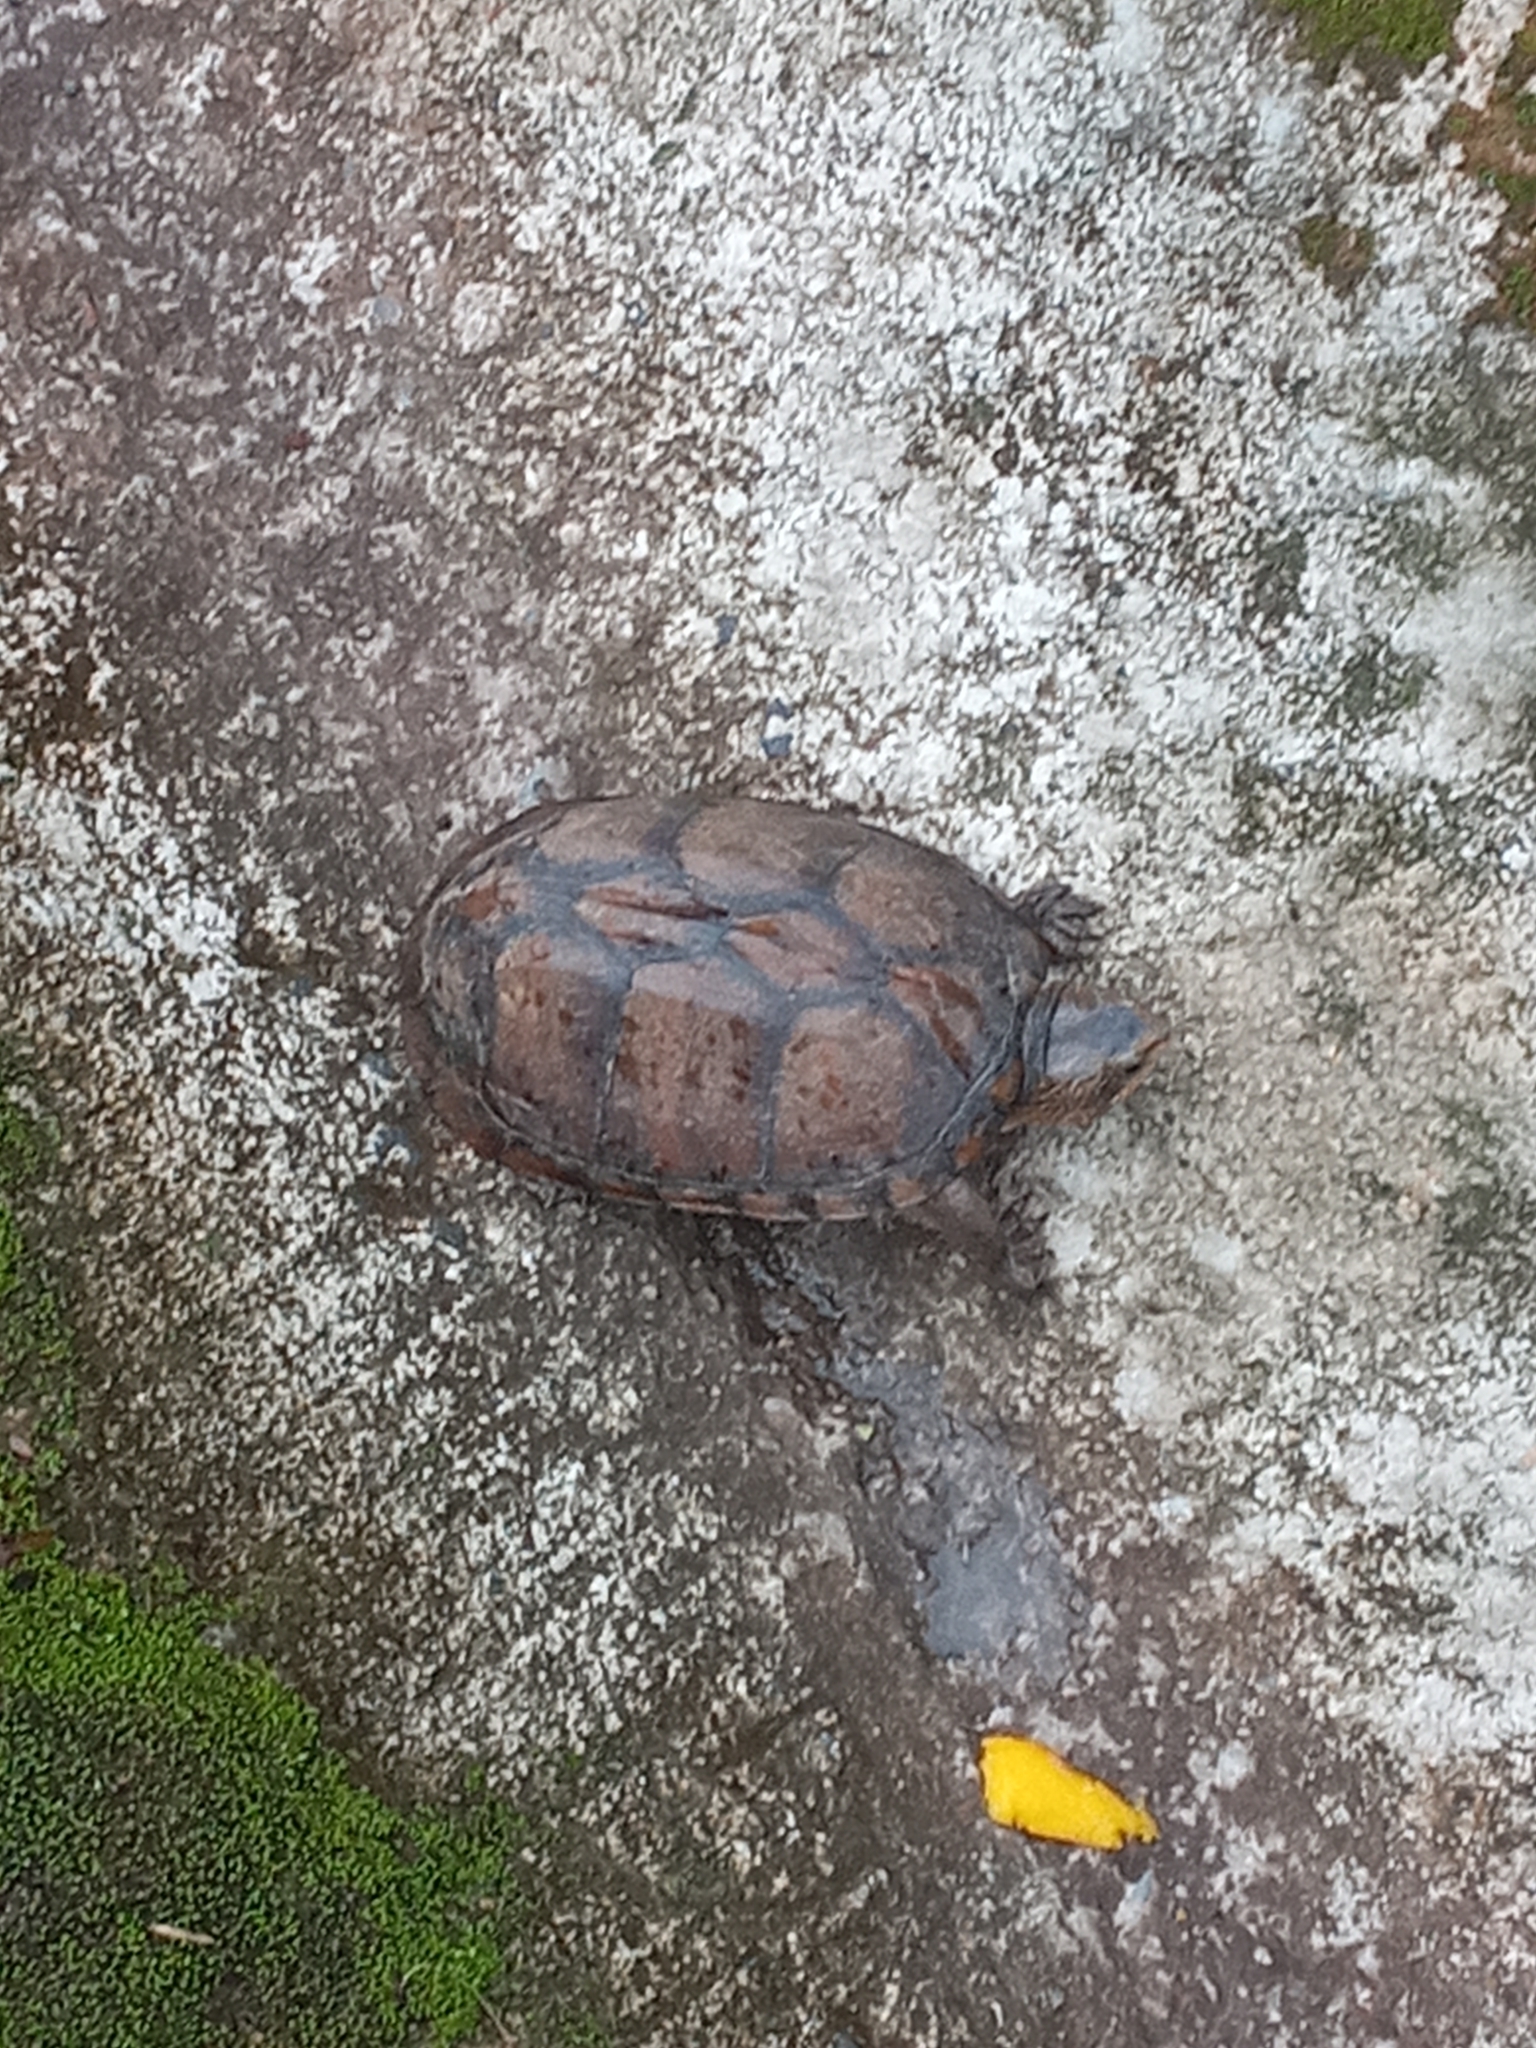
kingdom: Animalia
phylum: Chordata
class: Testudines
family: Kinosternidae
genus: Kinosternon
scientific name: Kinosternon scorpioides
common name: Scorpion mud turtle
